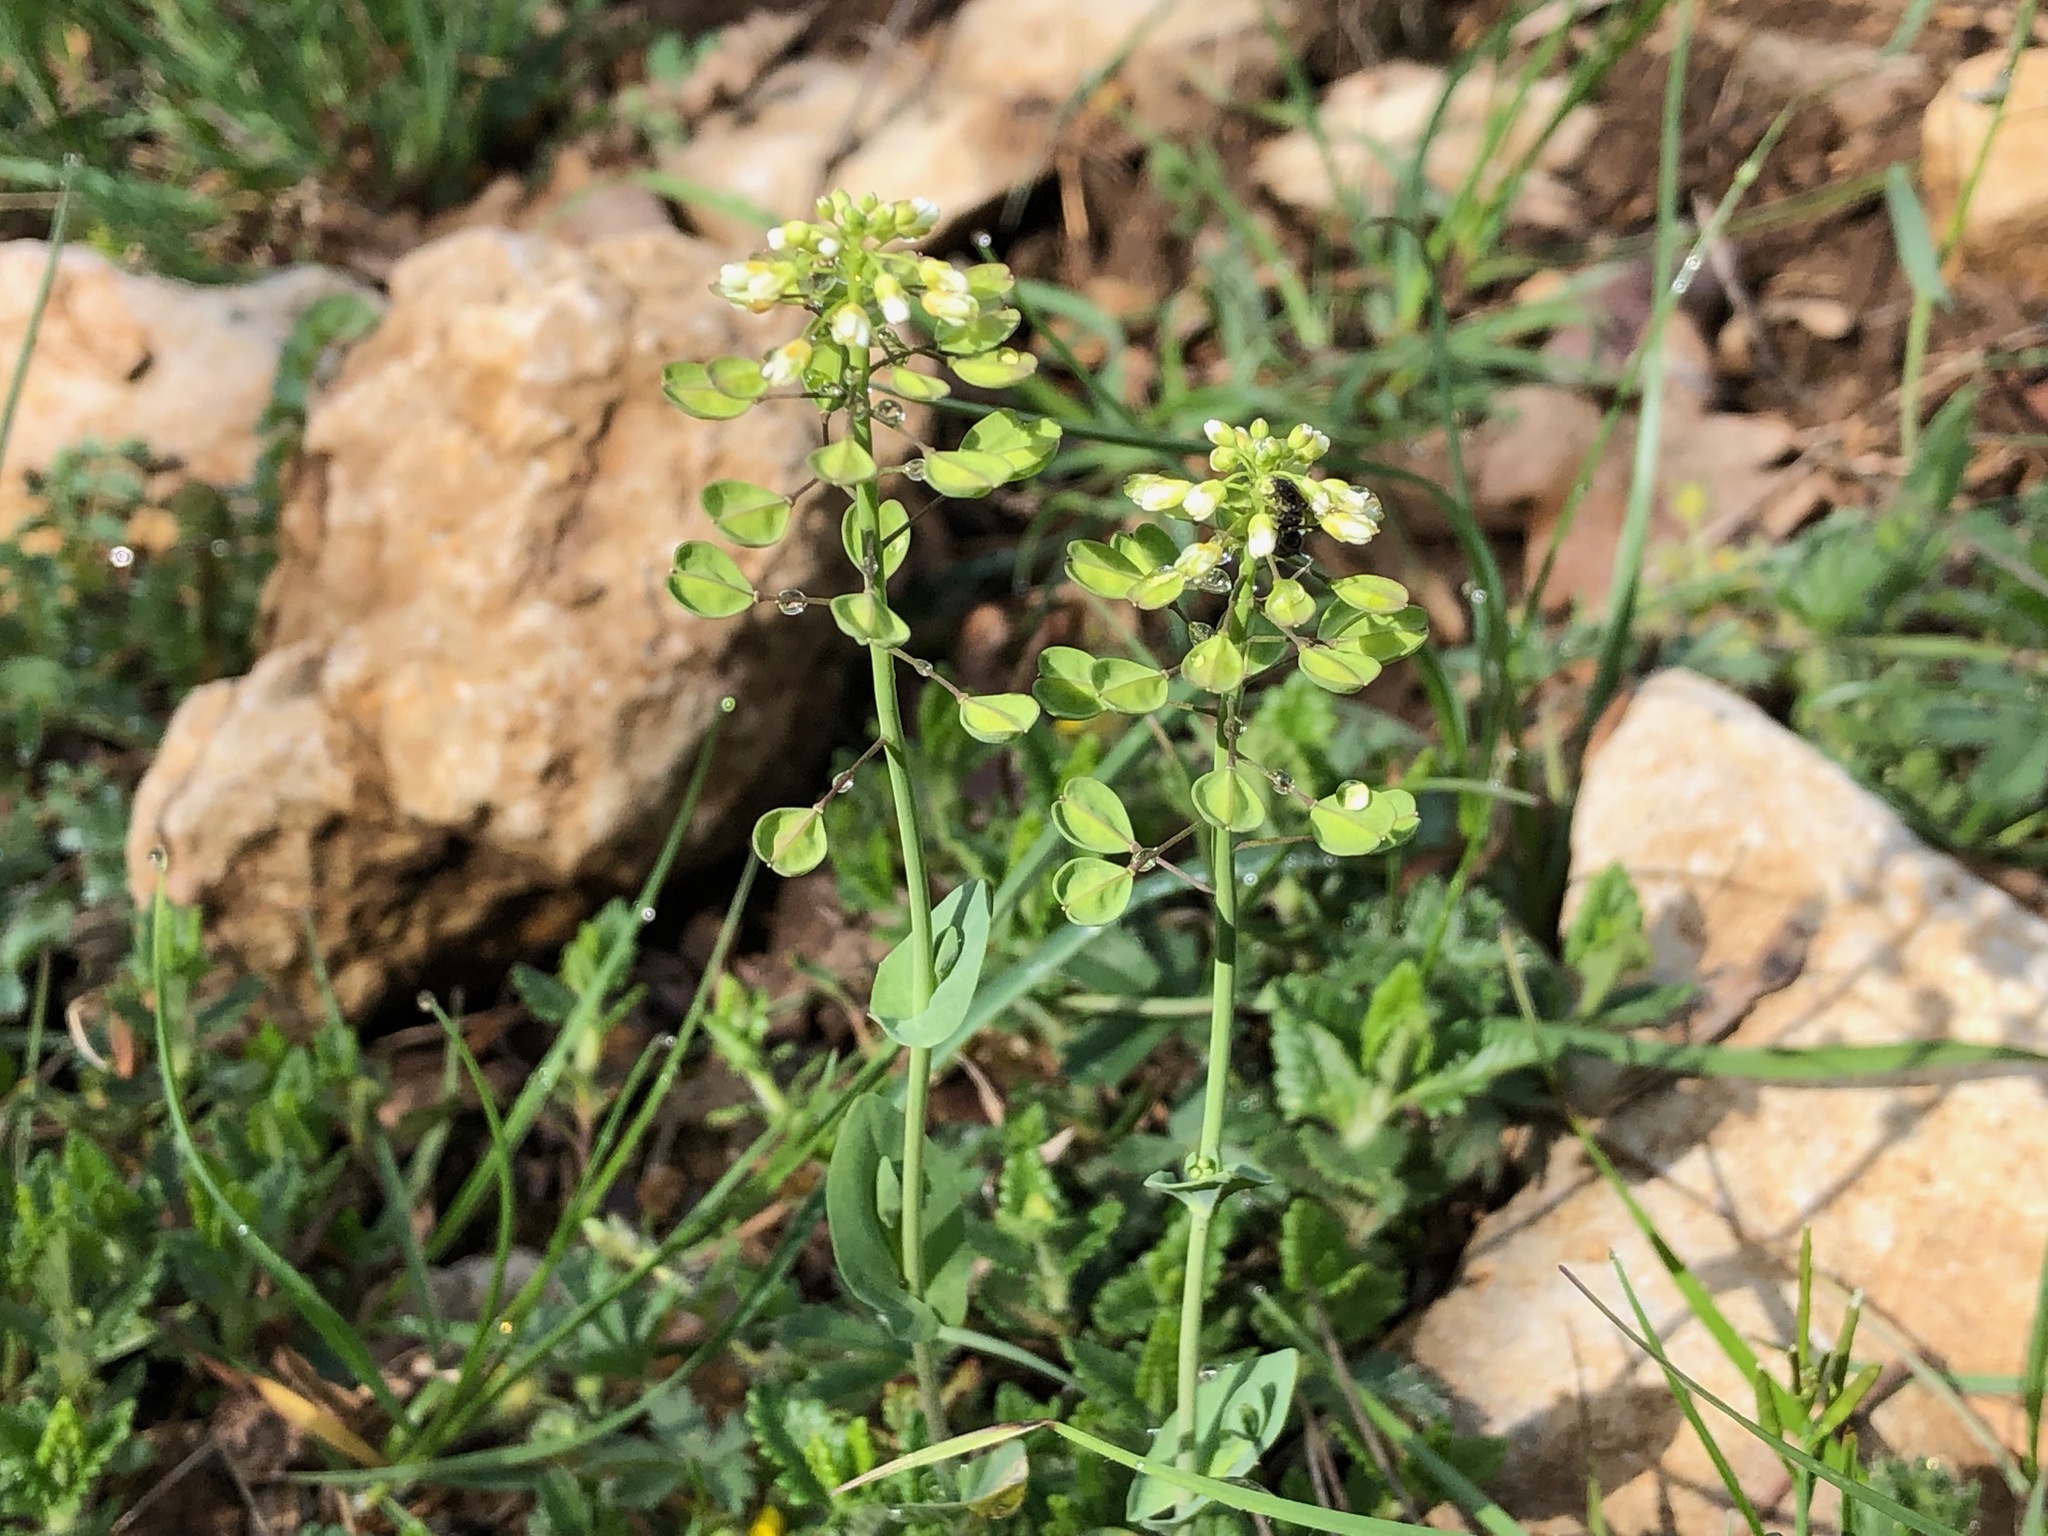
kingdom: Plantae
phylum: Tracheophyta
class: Magnoliopsida
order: Brassicales
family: Brassicaceae
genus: Noccaea
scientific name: Noccaea perfoliata
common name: Perfoliate pennycress
